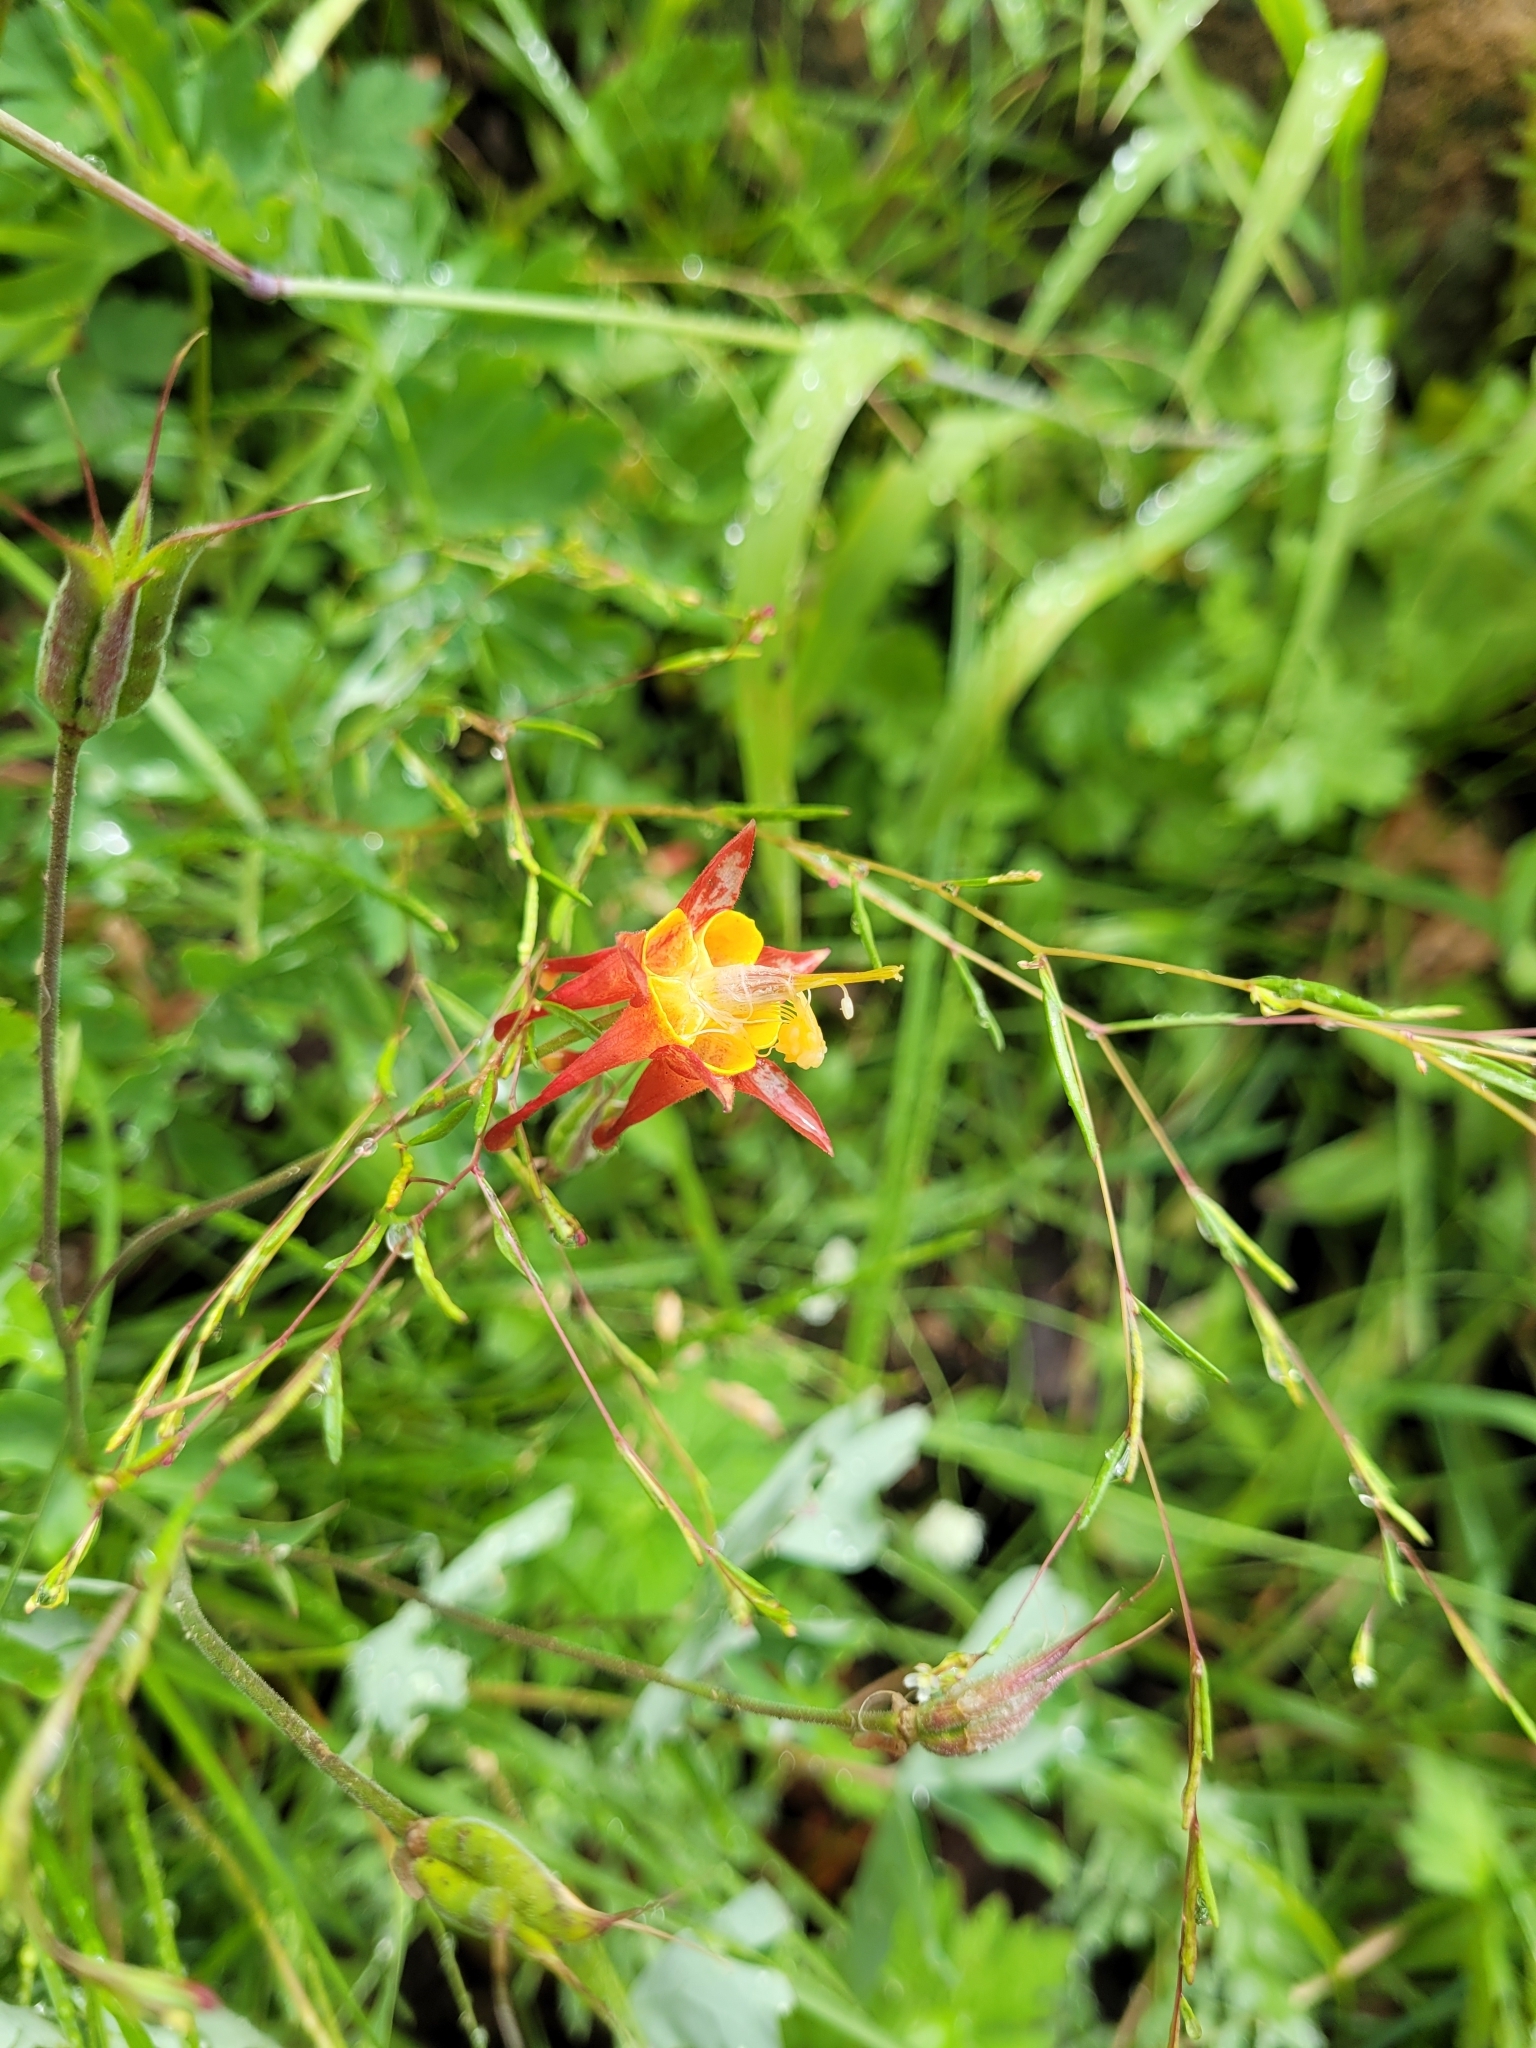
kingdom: Plantae
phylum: Tracheophyta
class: Magnoliopsida
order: Ranunculales
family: Ranunculaceae
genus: Aquilegia
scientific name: Aquilegia formosa
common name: Sitka columbine
